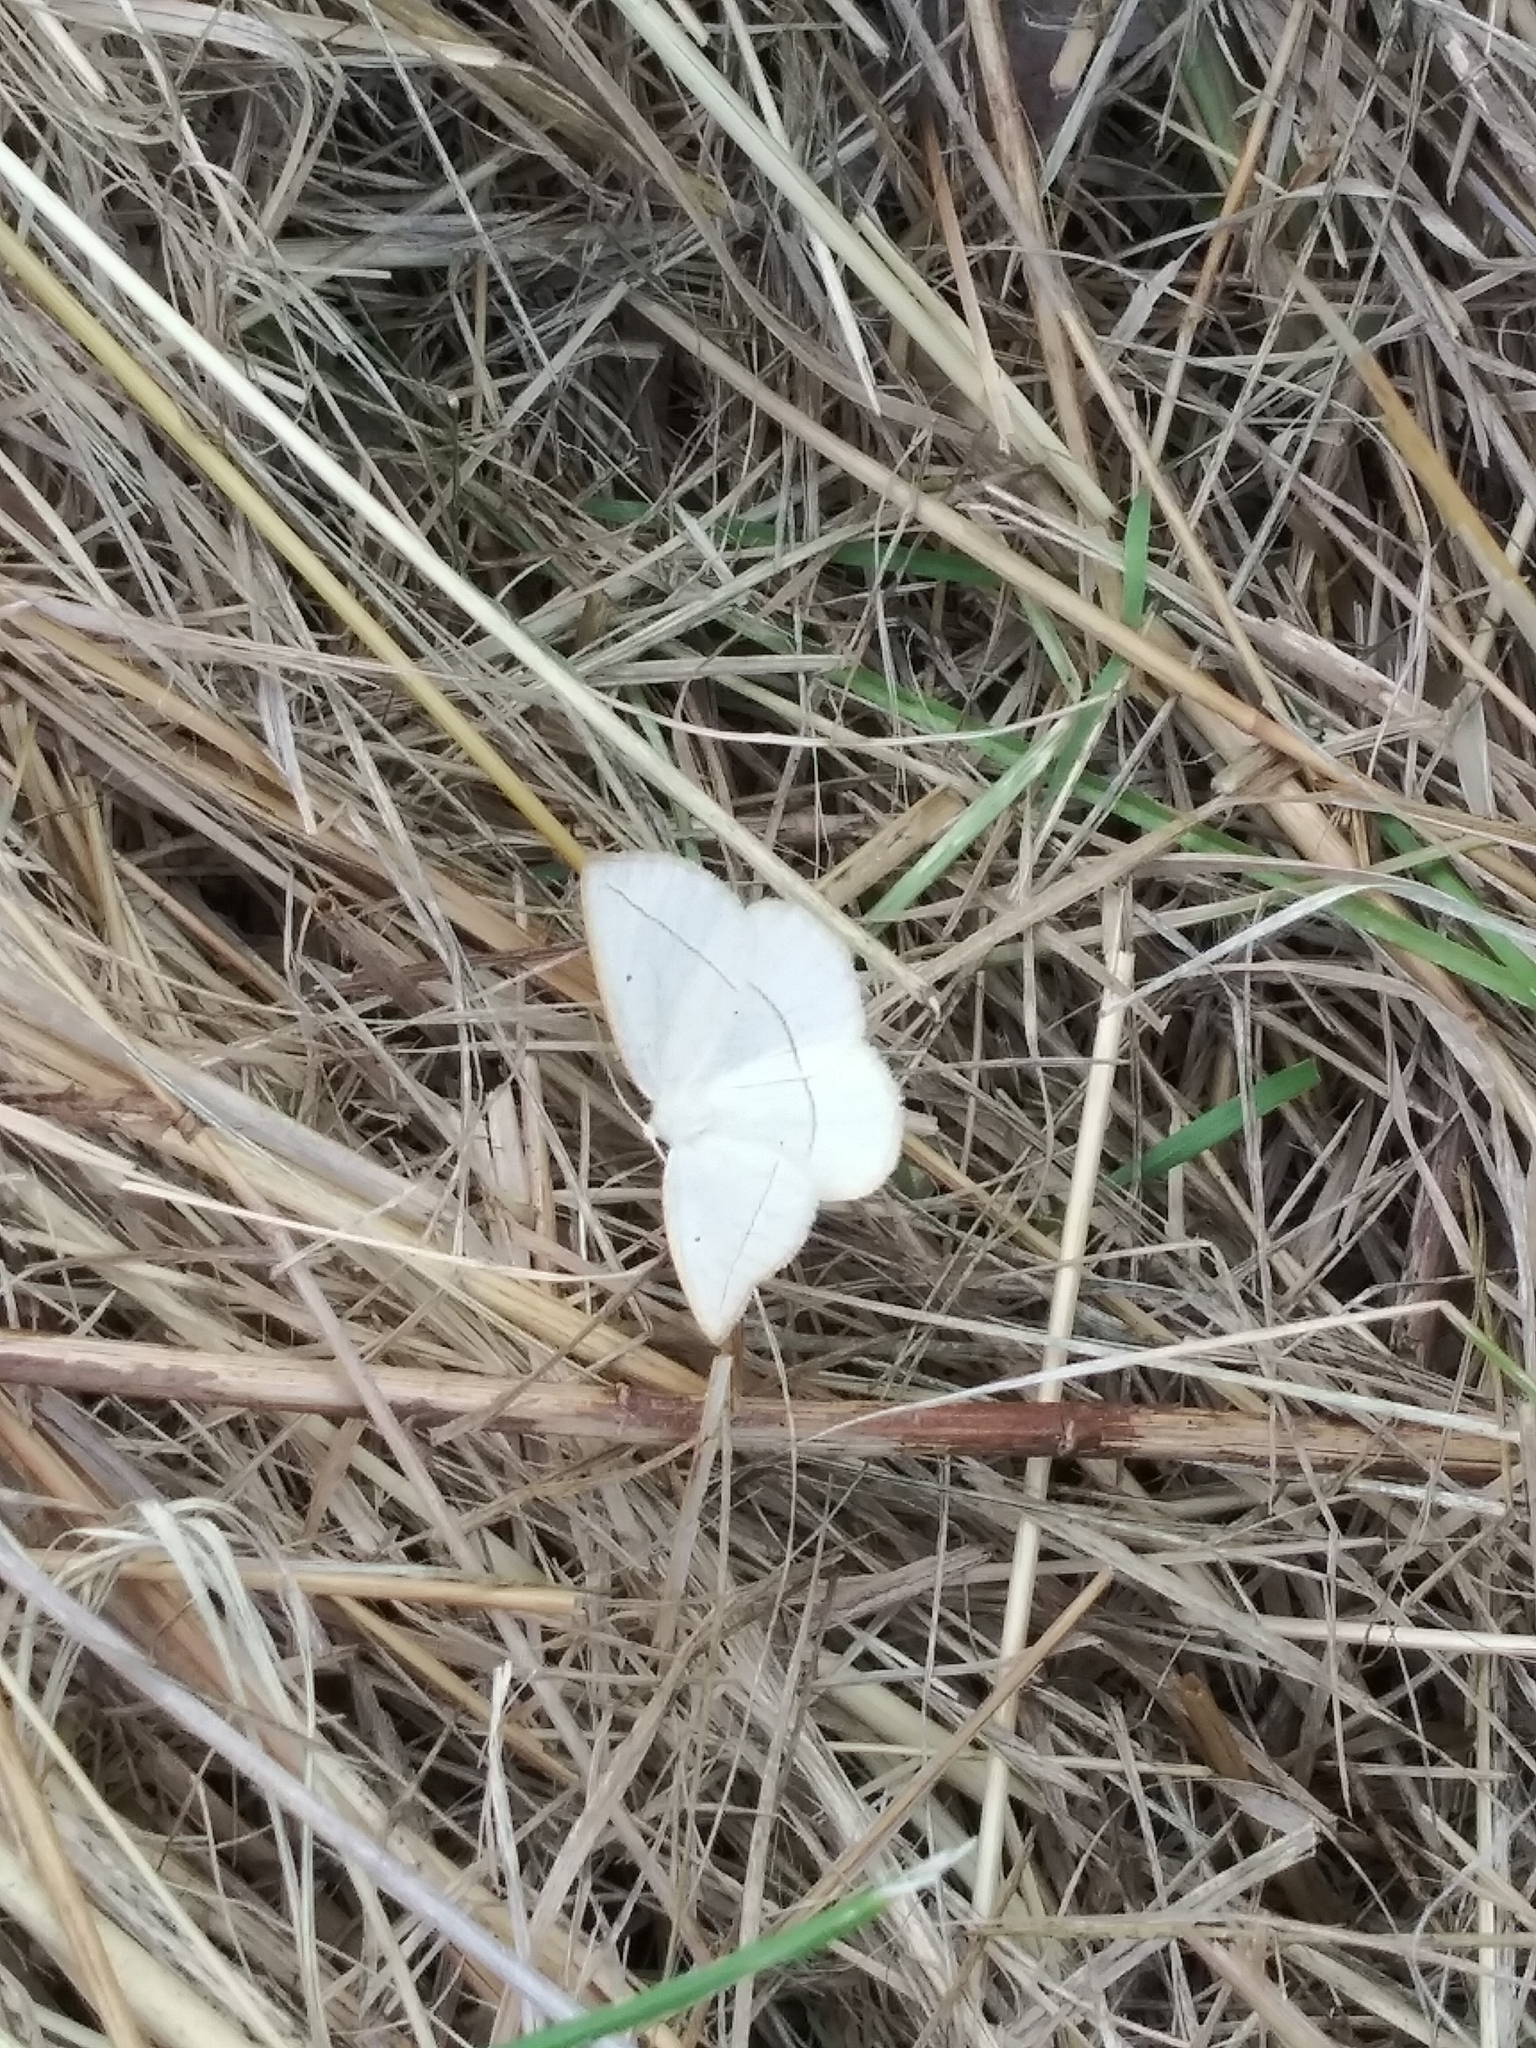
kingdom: Animalia
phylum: Arthropoda
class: Insecta
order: Lepidoptera
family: Geometridae
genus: Eusarca
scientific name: Eusarca confusaria
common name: Confused eusarca
